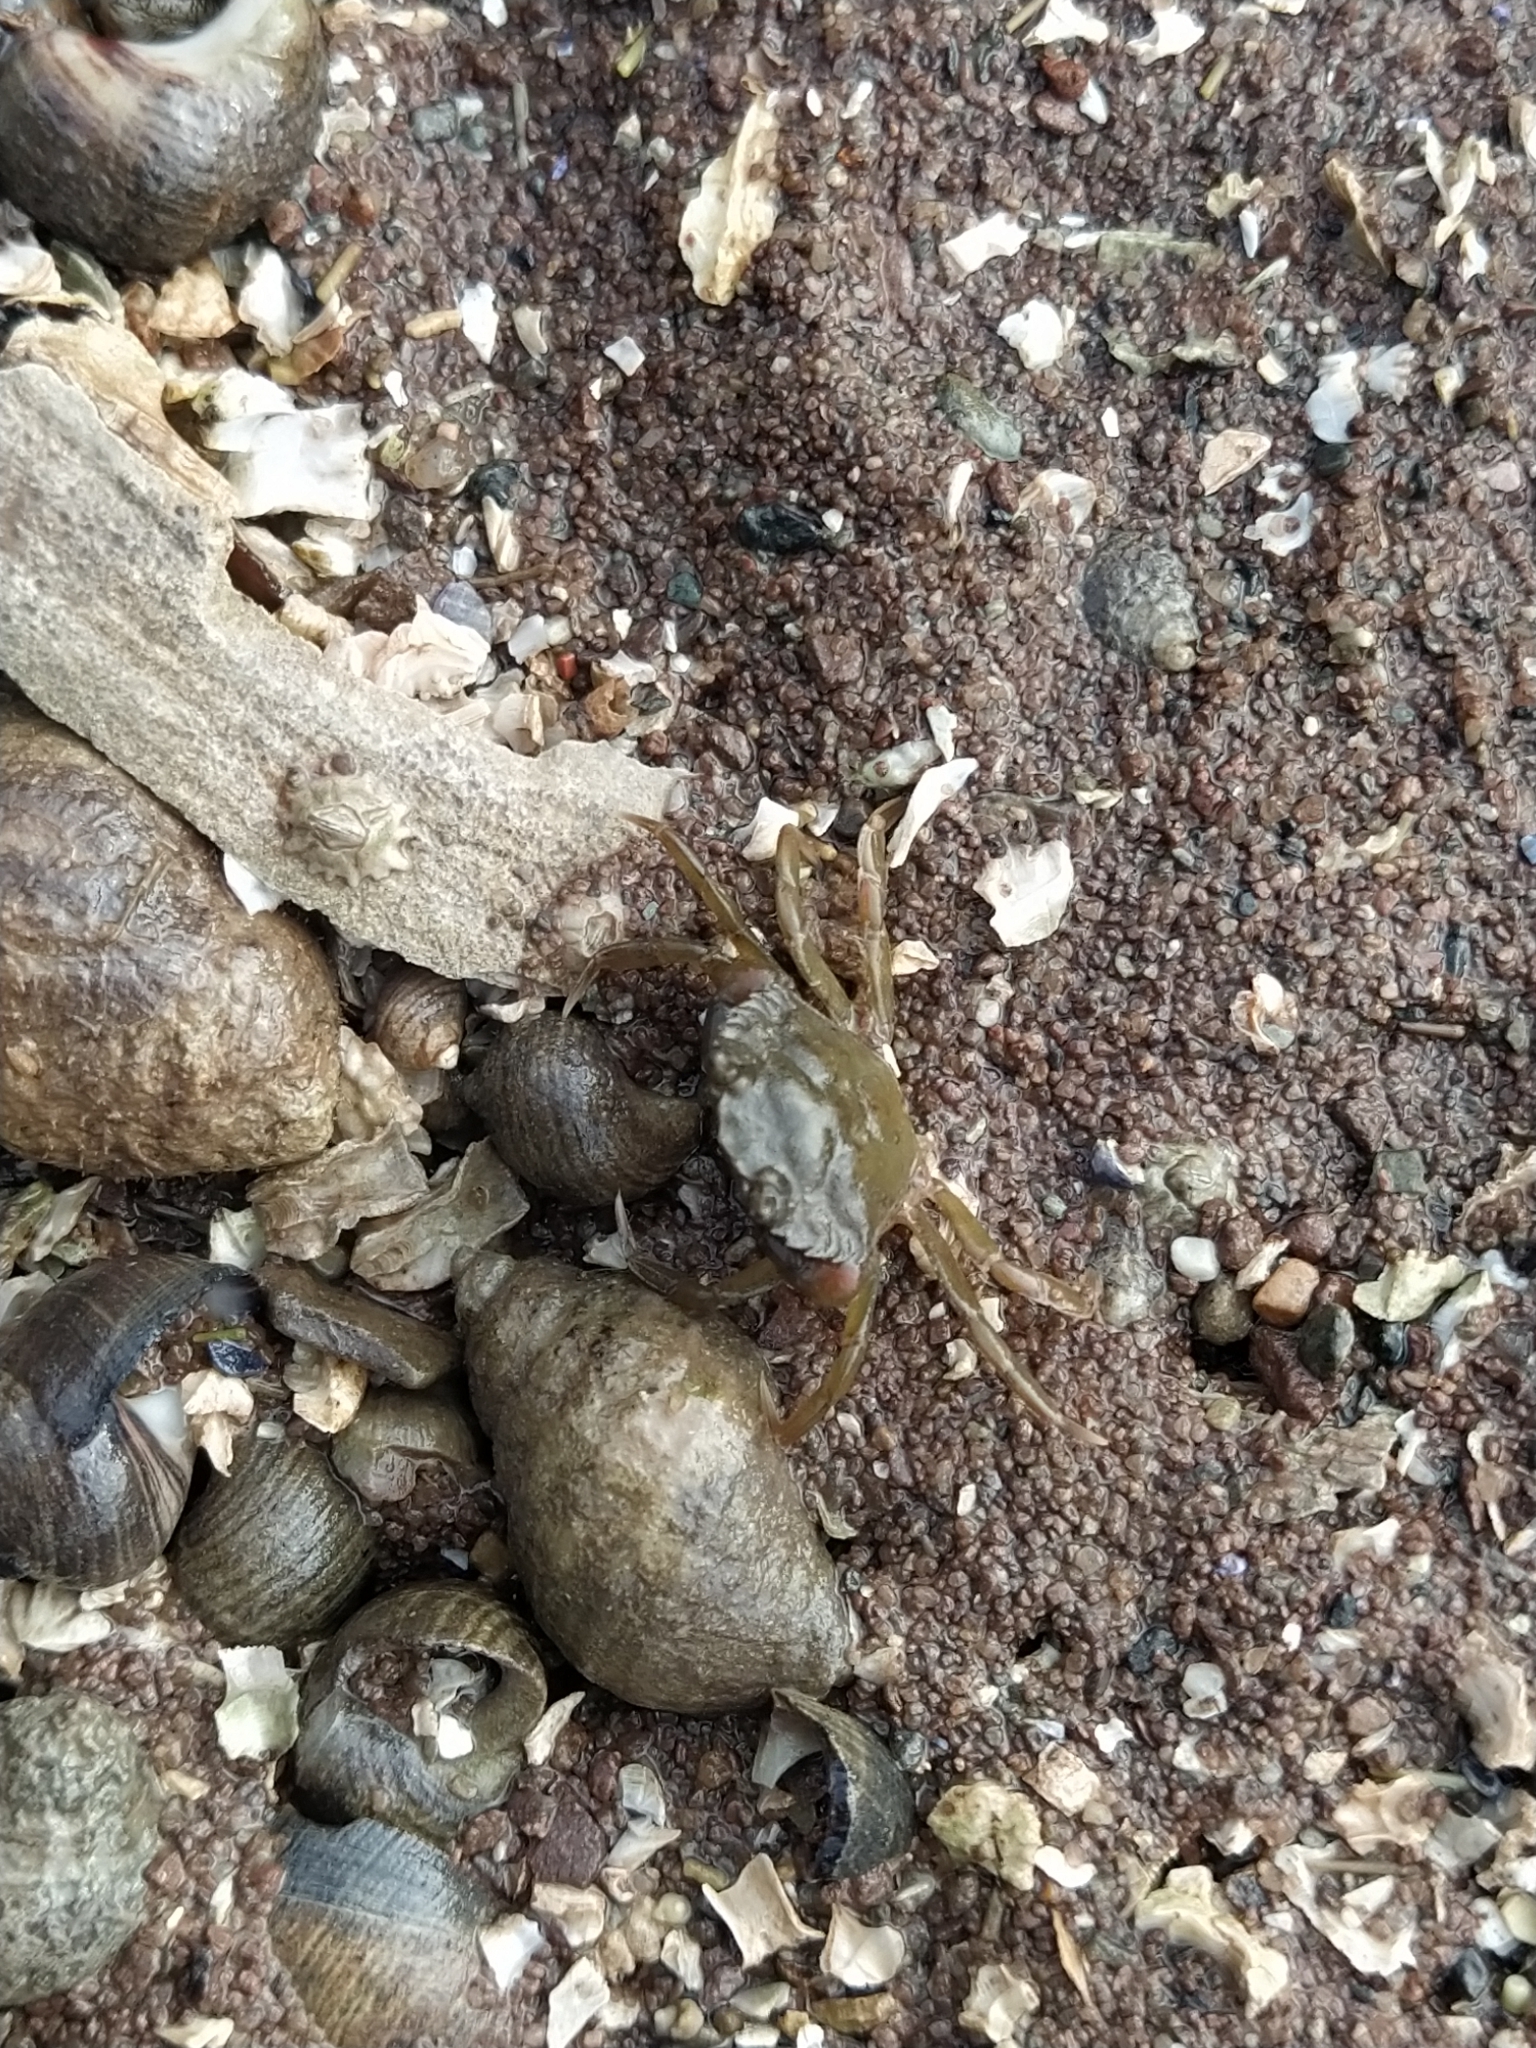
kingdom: Animalia
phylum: Arthropoda
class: Malacostraca
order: Decapoda
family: Carcinidae
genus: Carcinus
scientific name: Carcinus maenas
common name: European green crab
